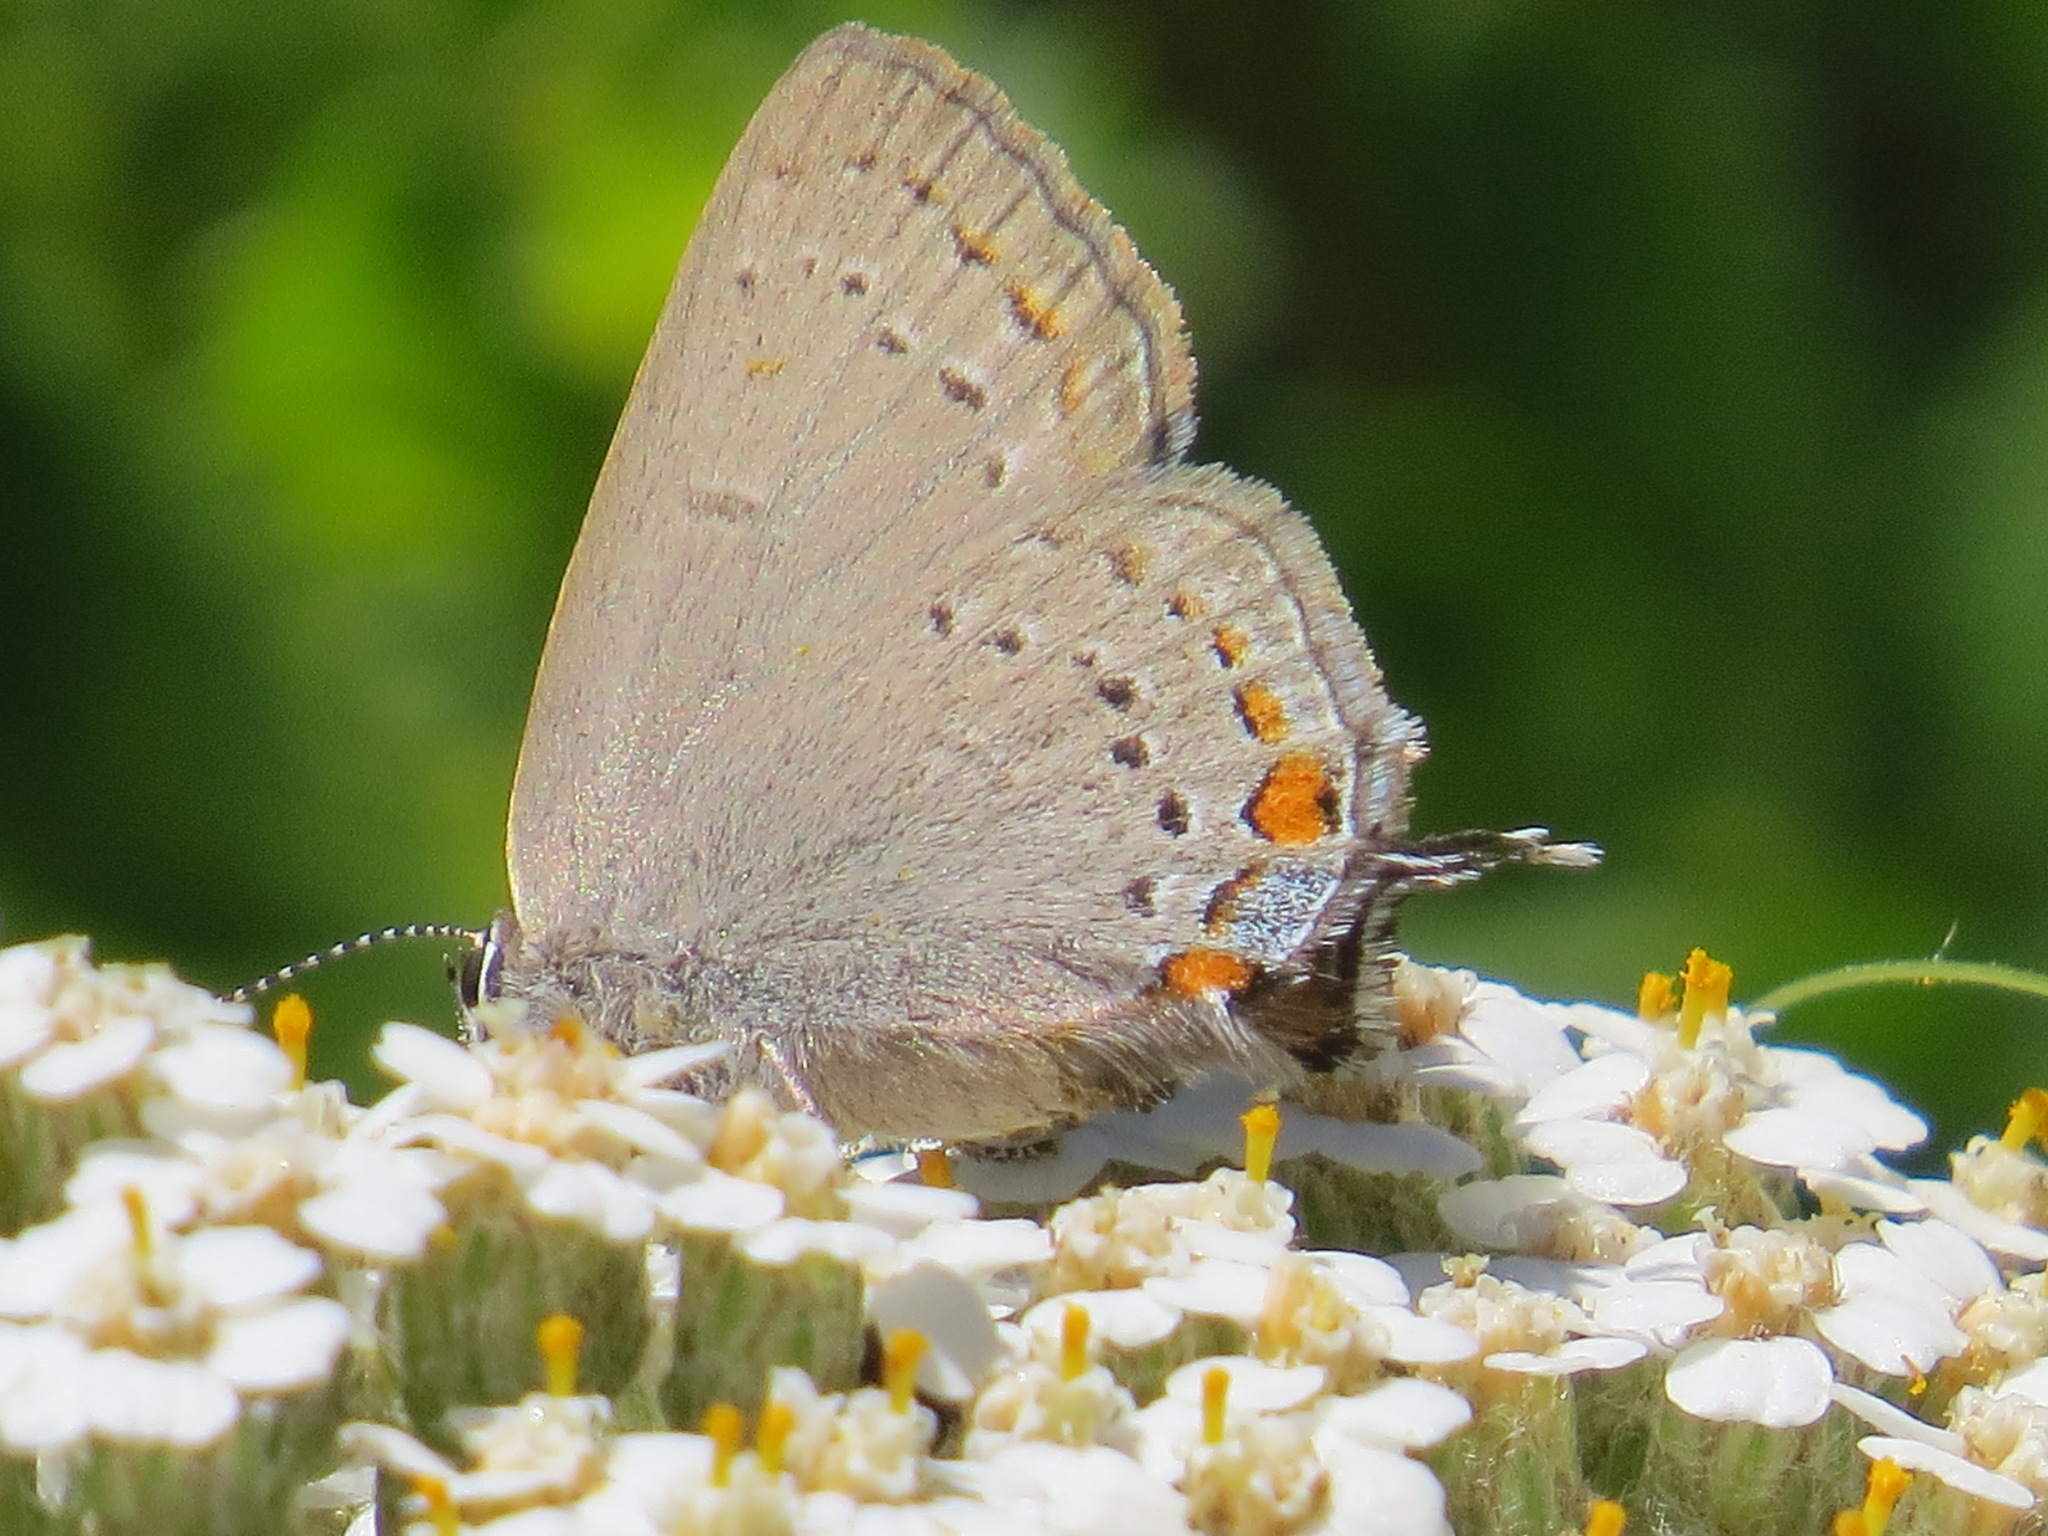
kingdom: Animalia
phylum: Arthropoda
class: Insecta
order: Lepidoptera
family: Lycaenidae
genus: Strymon
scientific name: Strymon acadica
